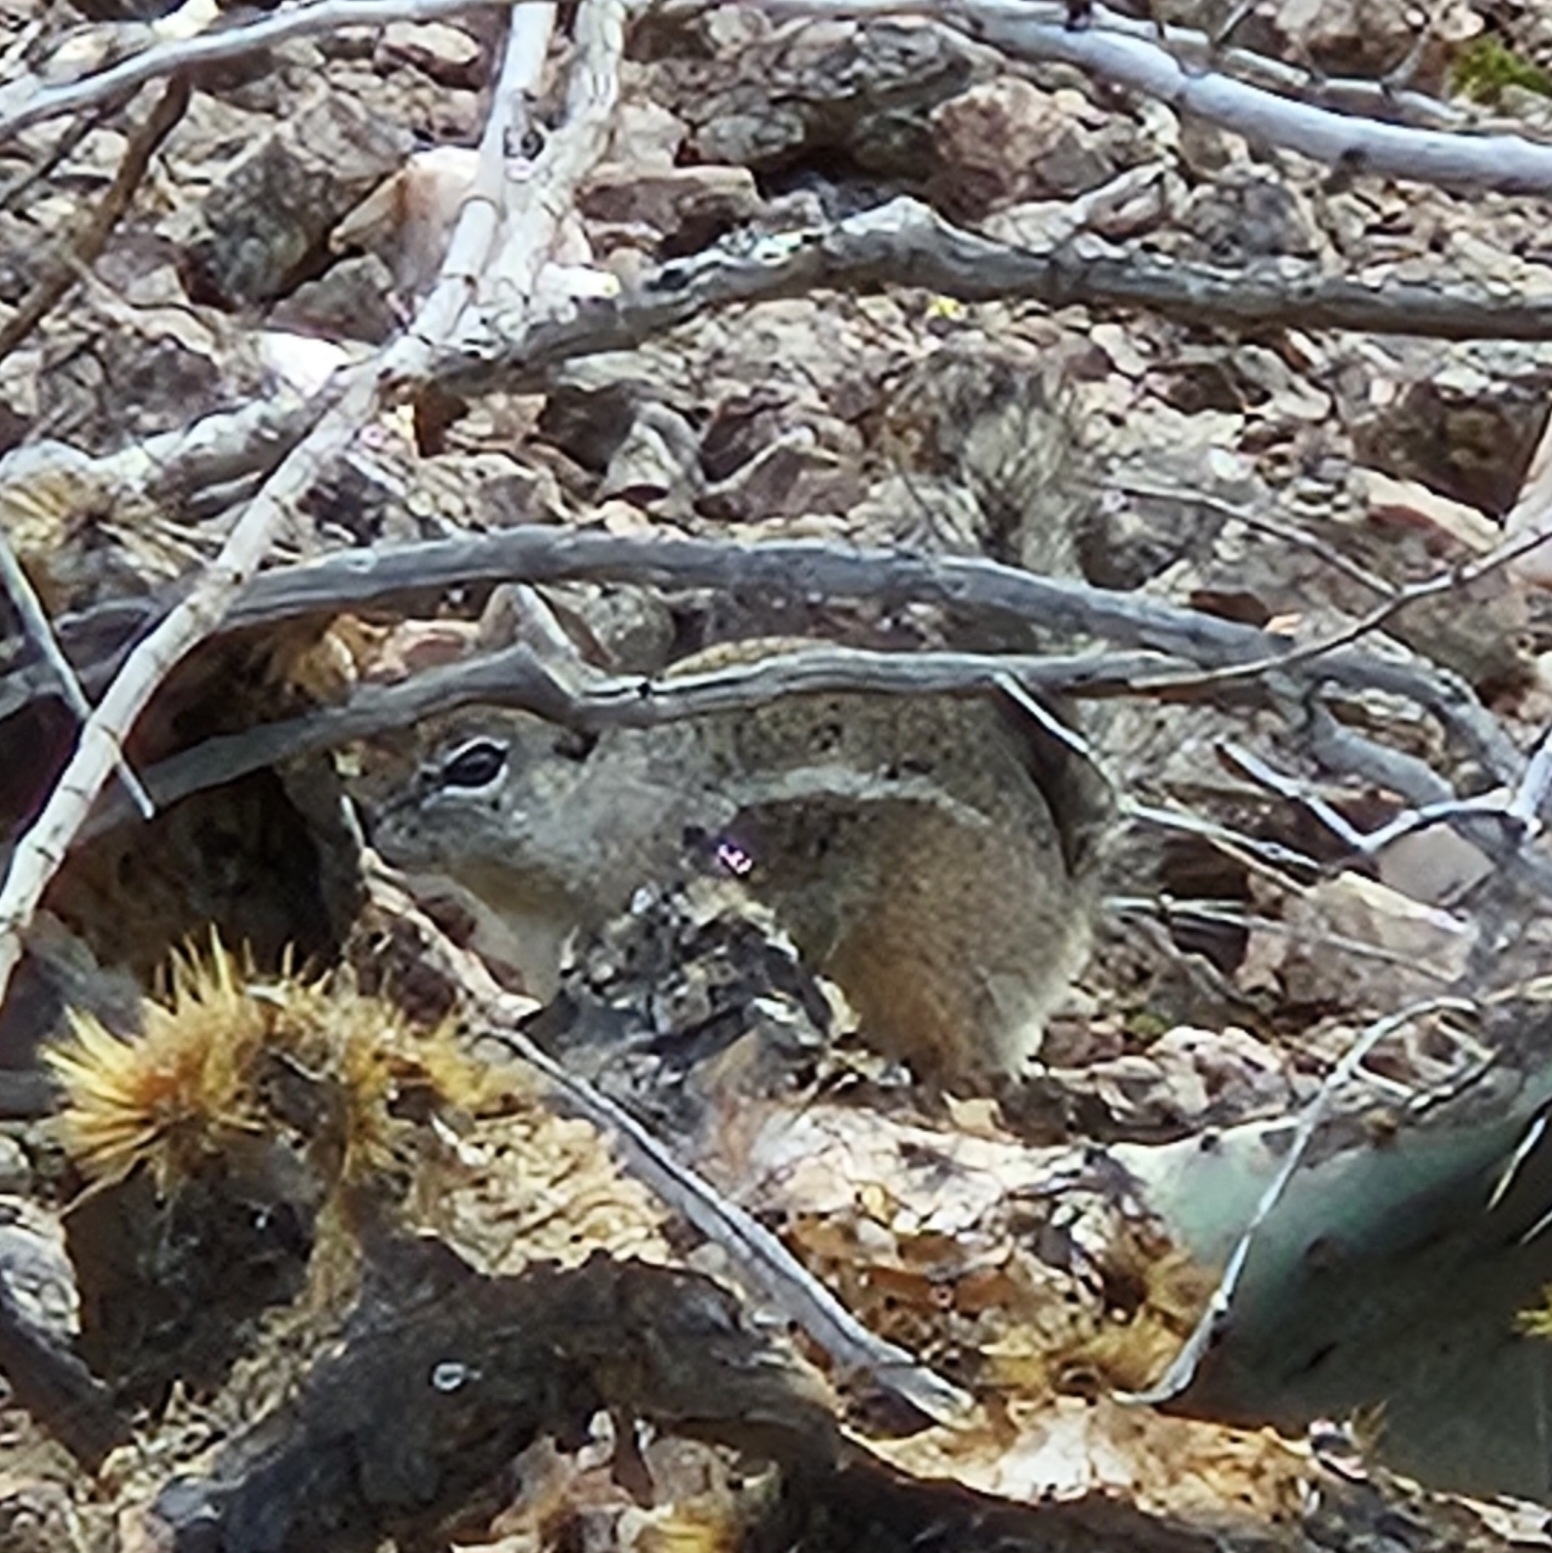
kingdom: Animalia
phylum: Chordata
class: Mammalia
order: Rodentia
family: Sciuridae
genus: Ammospermophilus
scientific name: Ammospermophilus harrisii
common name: Harris's antelope squirrel
